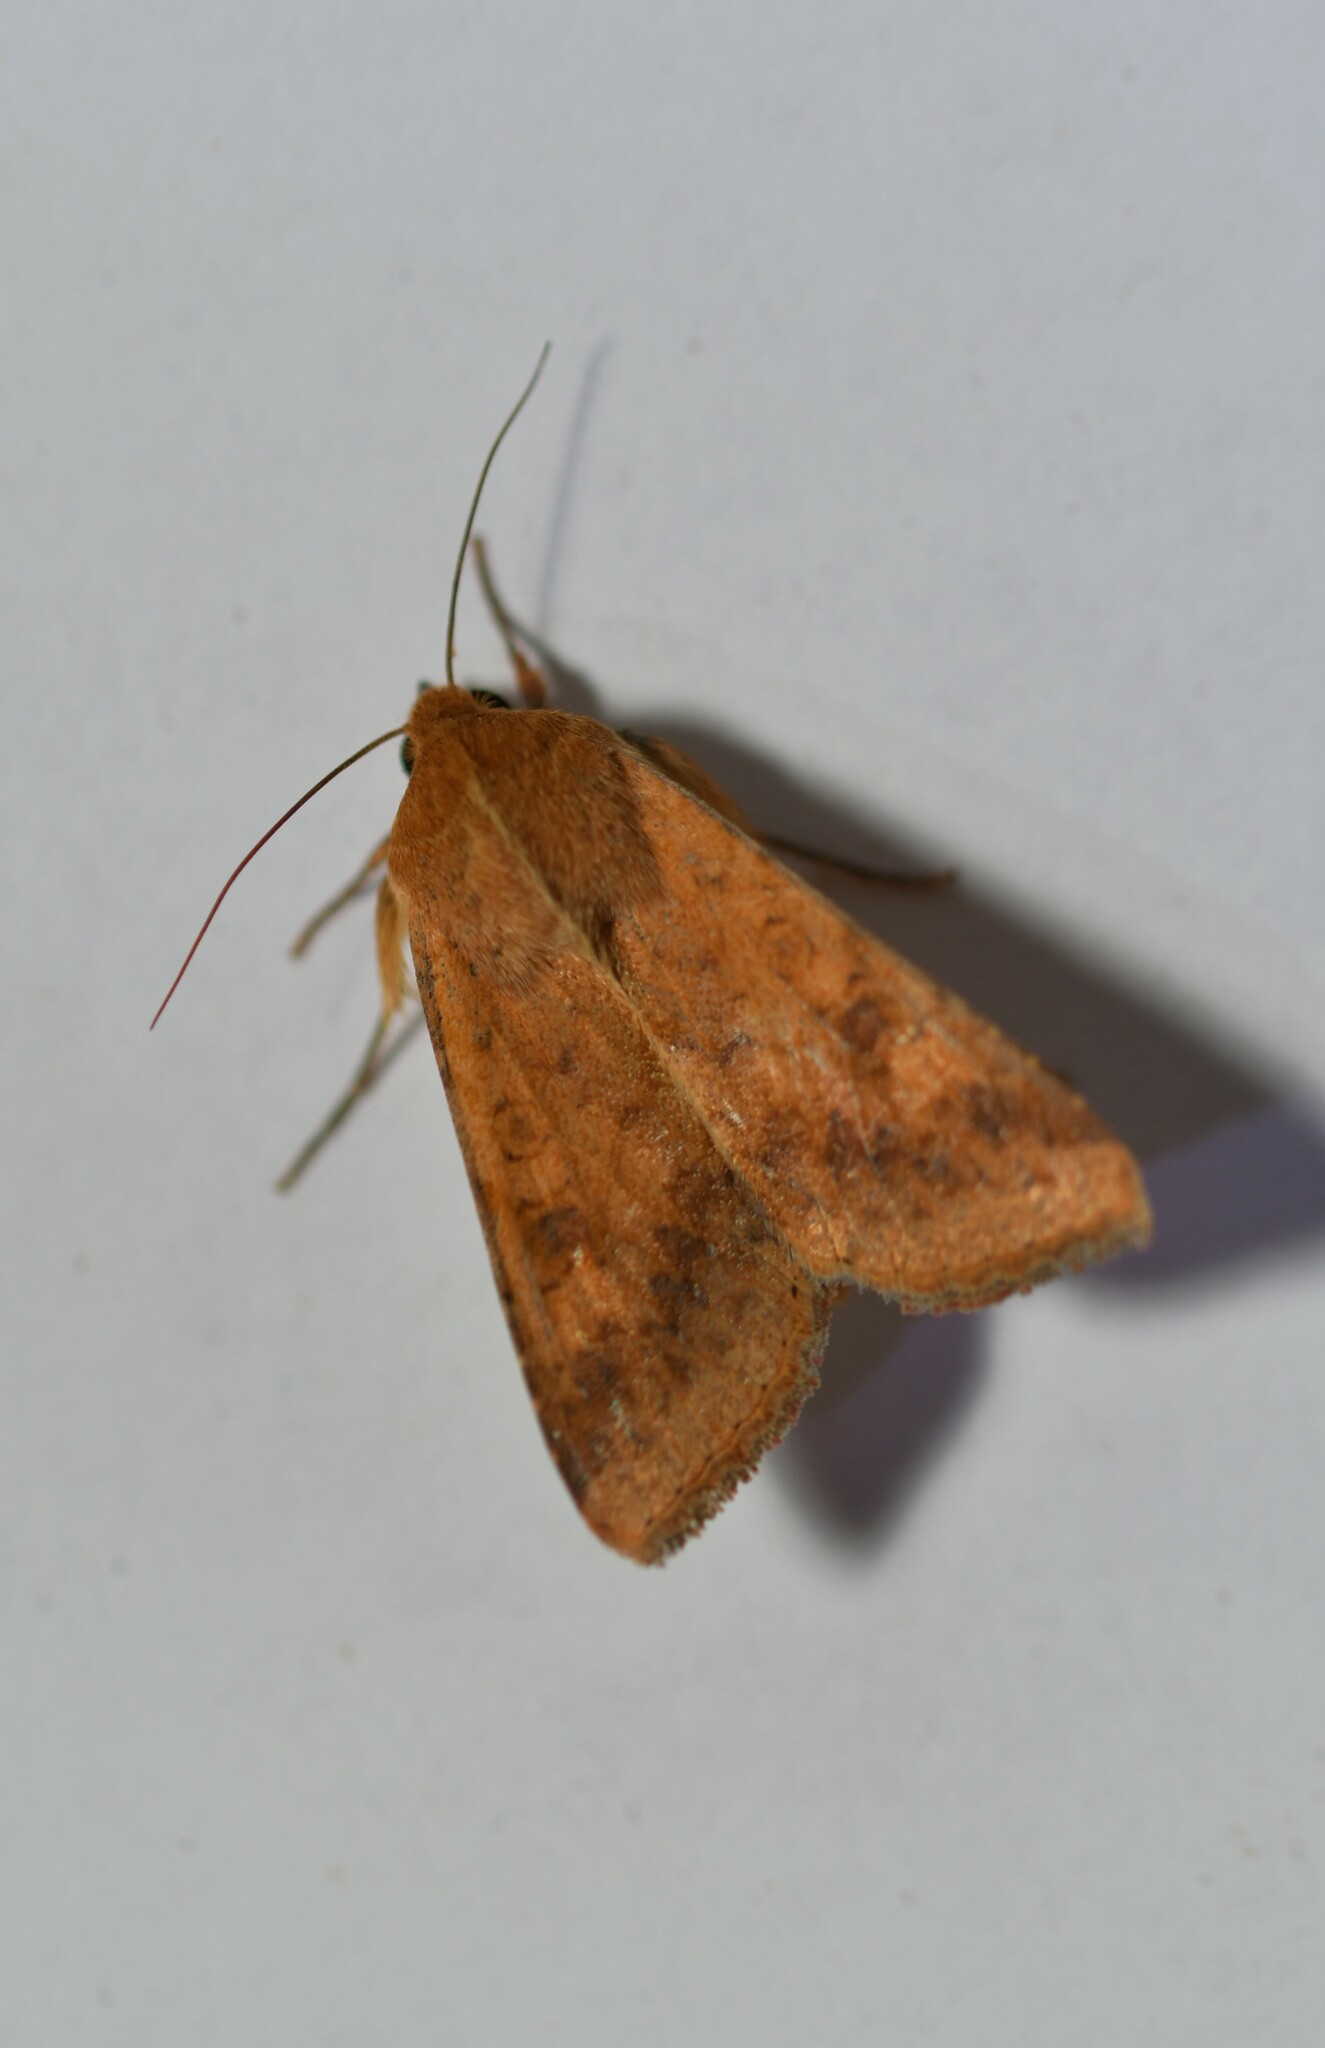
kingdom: Animalia
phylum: Arthropoda
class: Insecta
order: Lepidoptera
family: Noctuidae
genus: Helicoverpa
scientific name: Helicoverpa armigera
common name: Cotton bollworm
